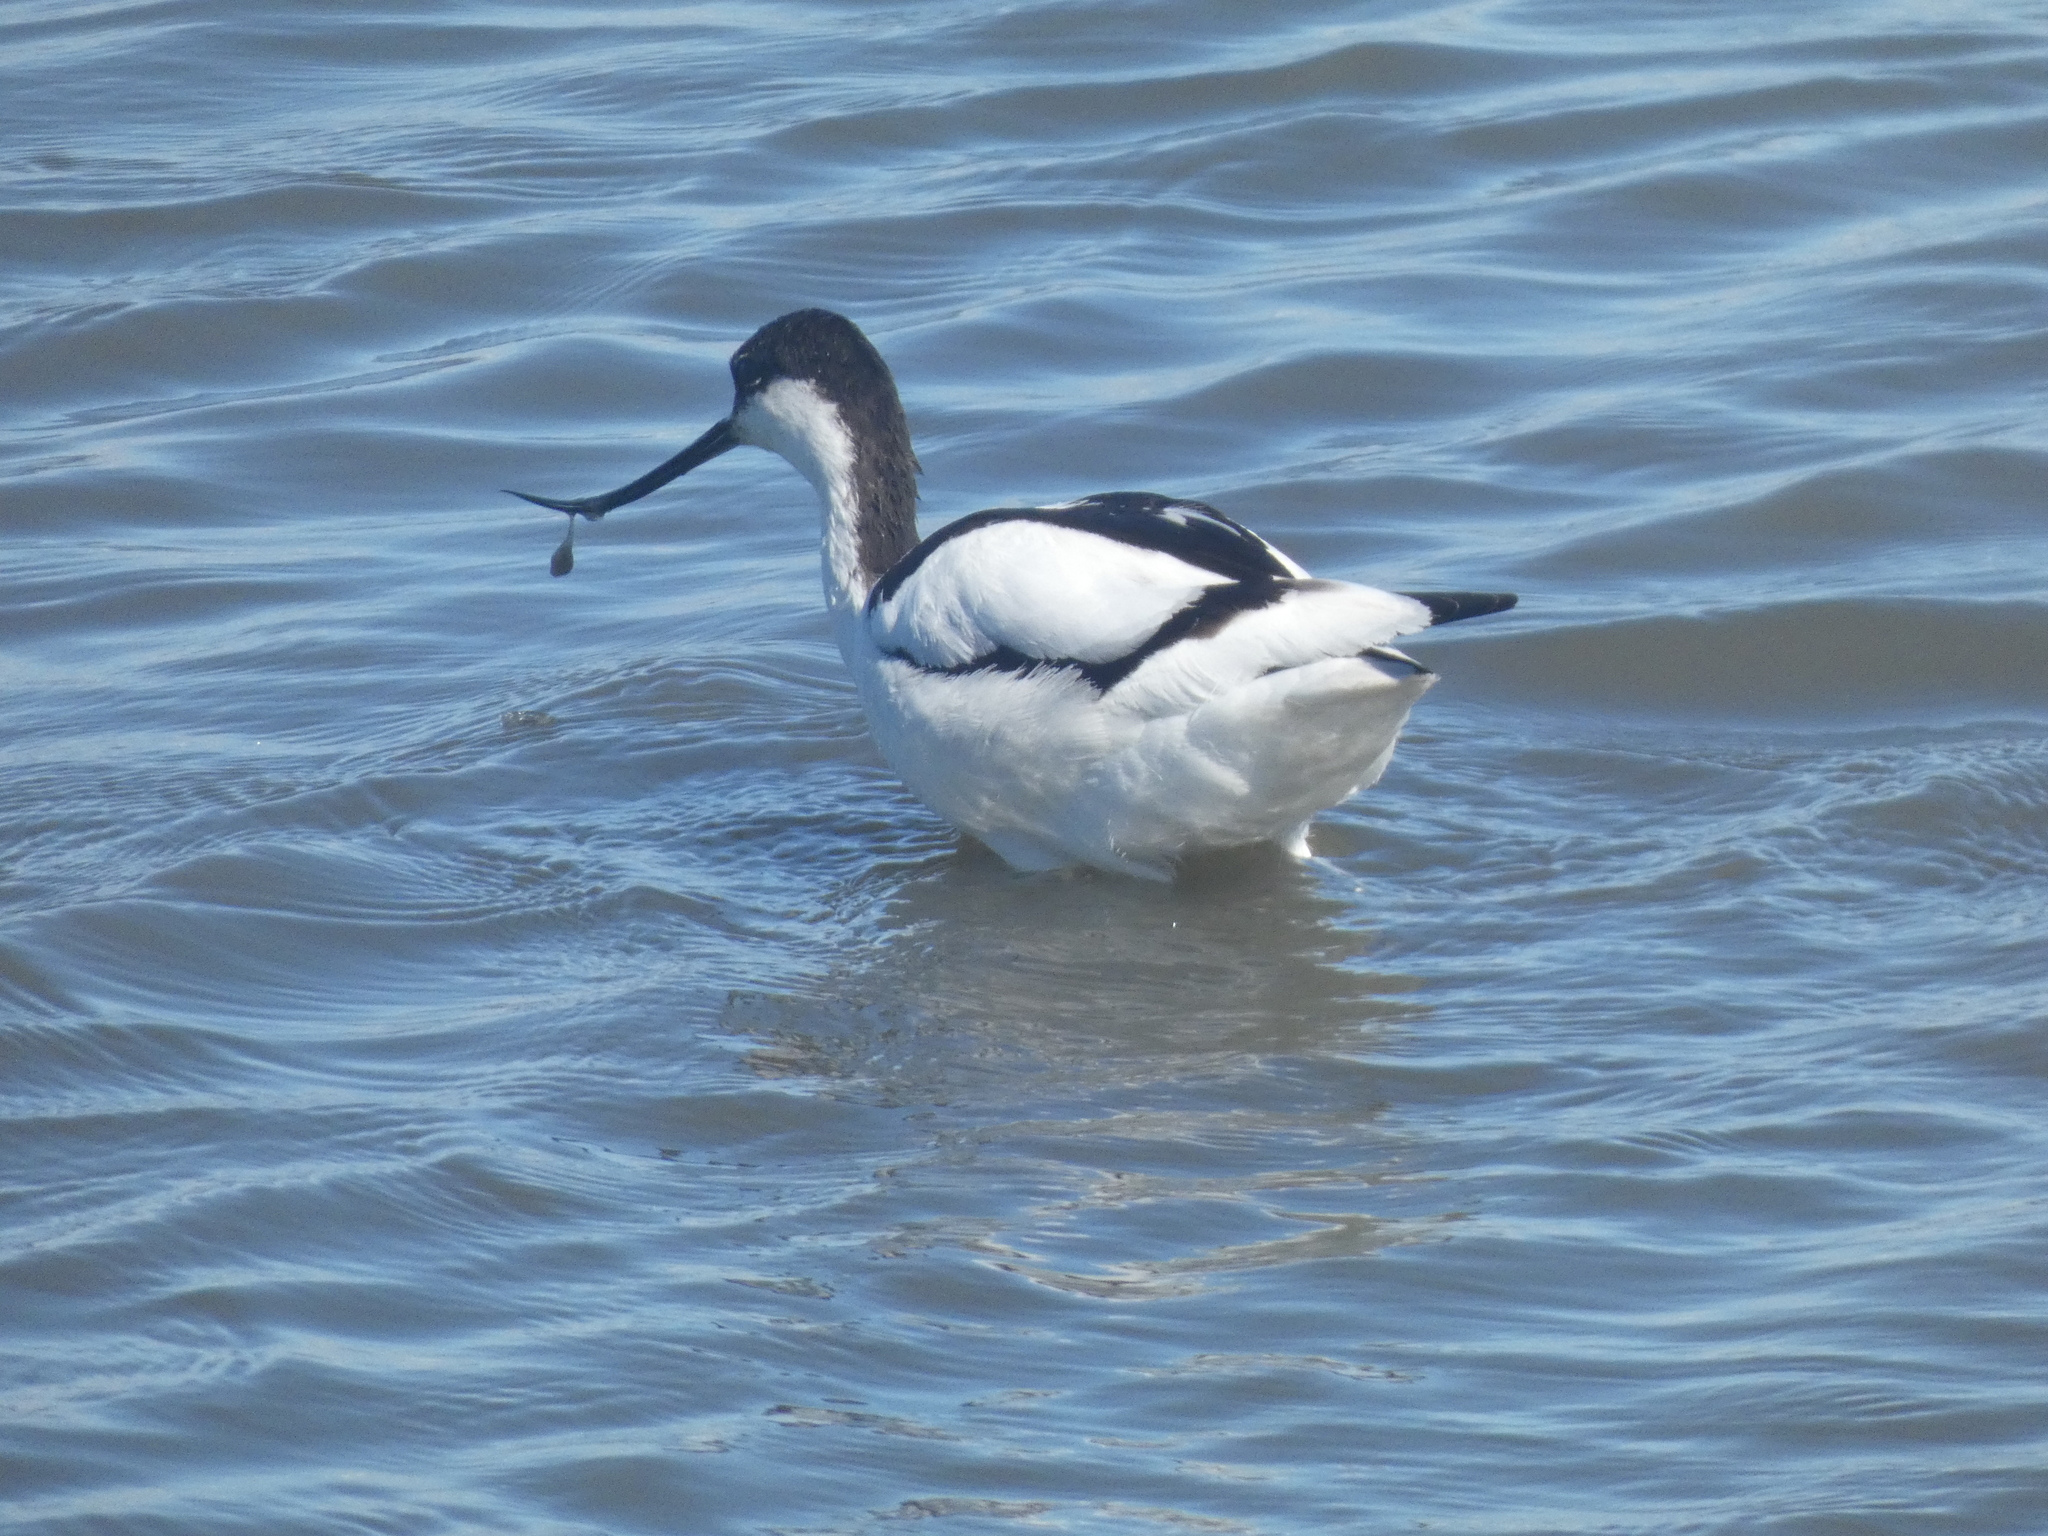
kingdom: Animalia
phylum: Chordata
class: Aves
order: Charadriiformes
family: Recurvirostridae
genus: Recurvirostra
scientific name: Recurvirostra avosetta
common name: Pied avocet
